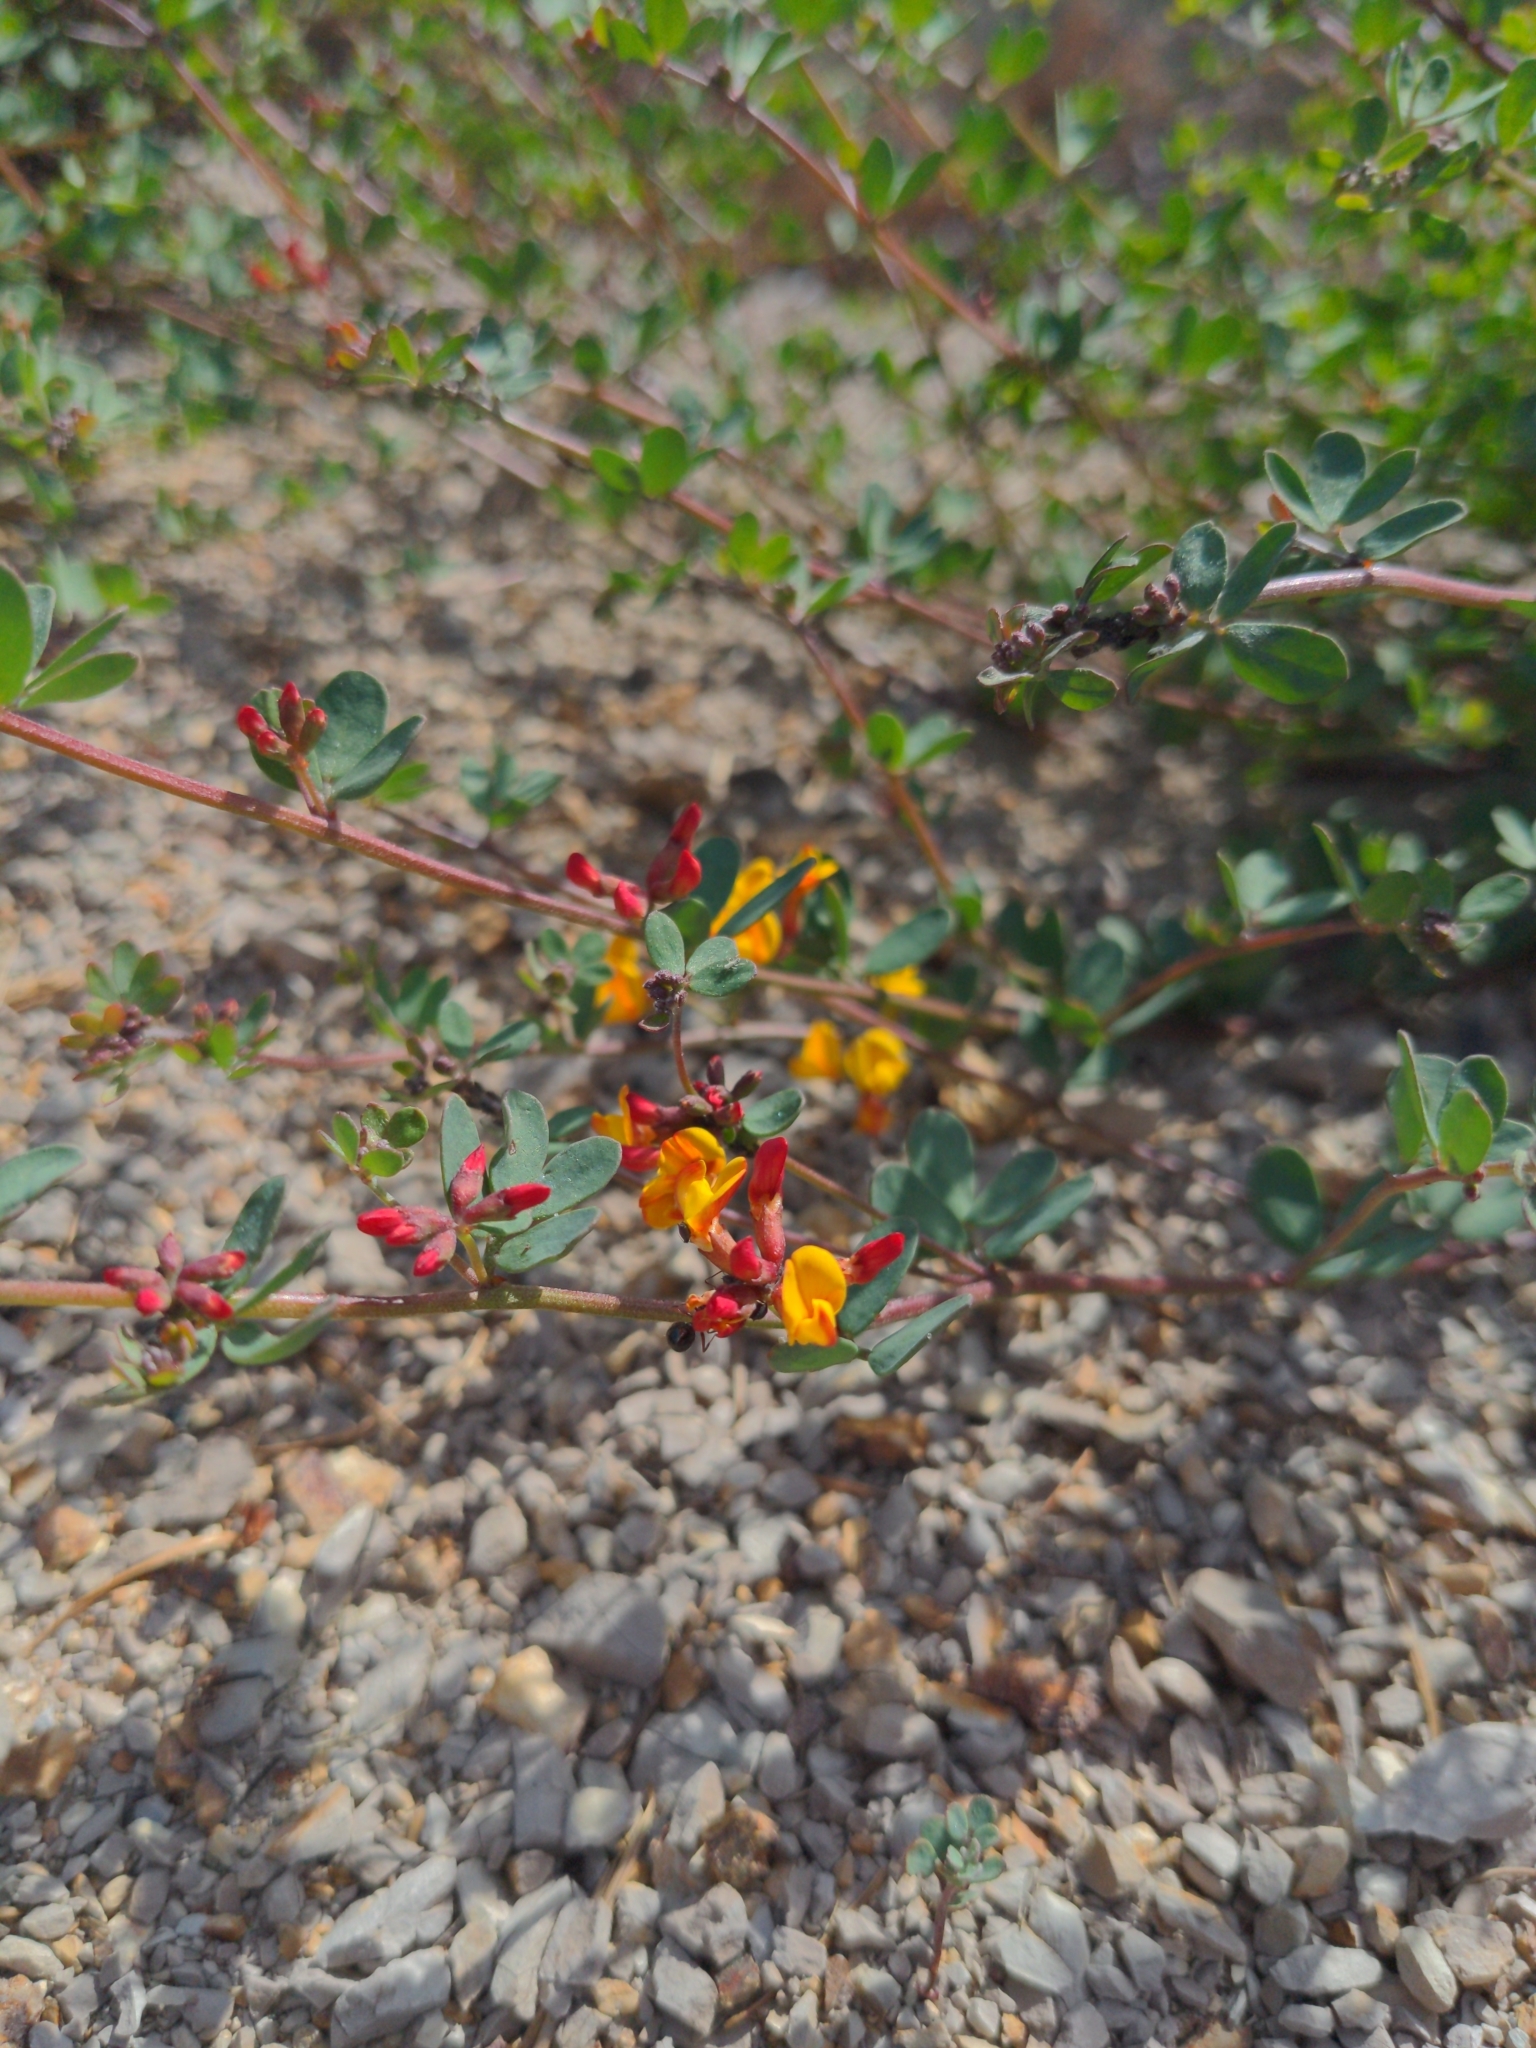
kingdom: Plantae
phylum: Tracheophyta
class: Magnoliopsida
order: Fabales
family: Fabaceae
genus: Acmispon
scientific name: Acmispon junceus
